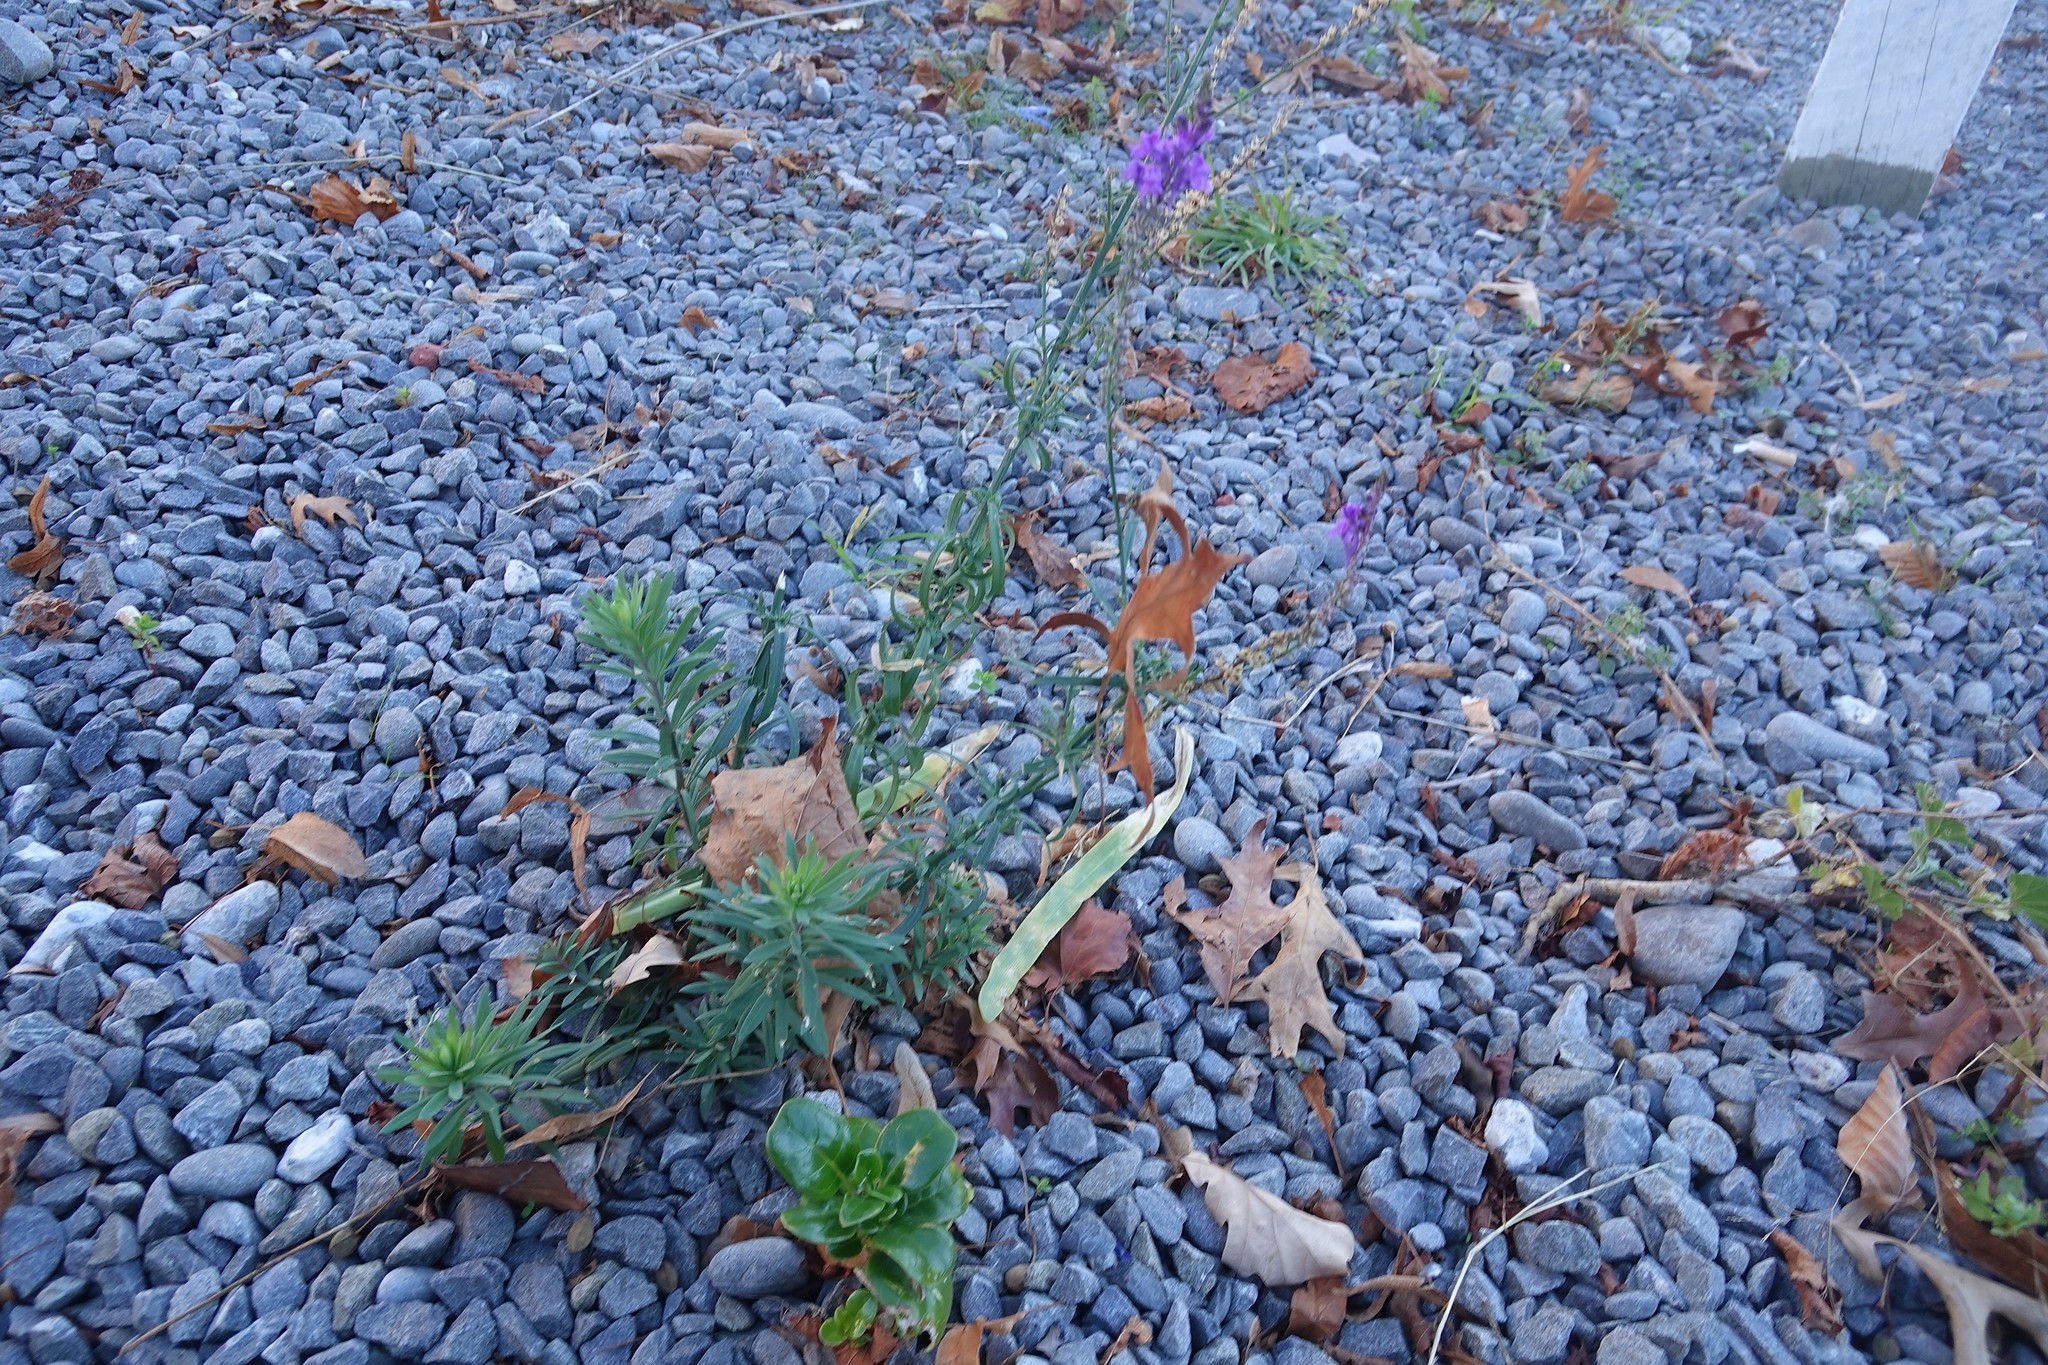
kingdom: Plantae
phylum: Tracheophyta
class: Magnoliopsida
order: Lamiales
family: Plantaginaceae
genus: Linaria
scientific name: Linaria purpurea
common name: Purple toadflax
